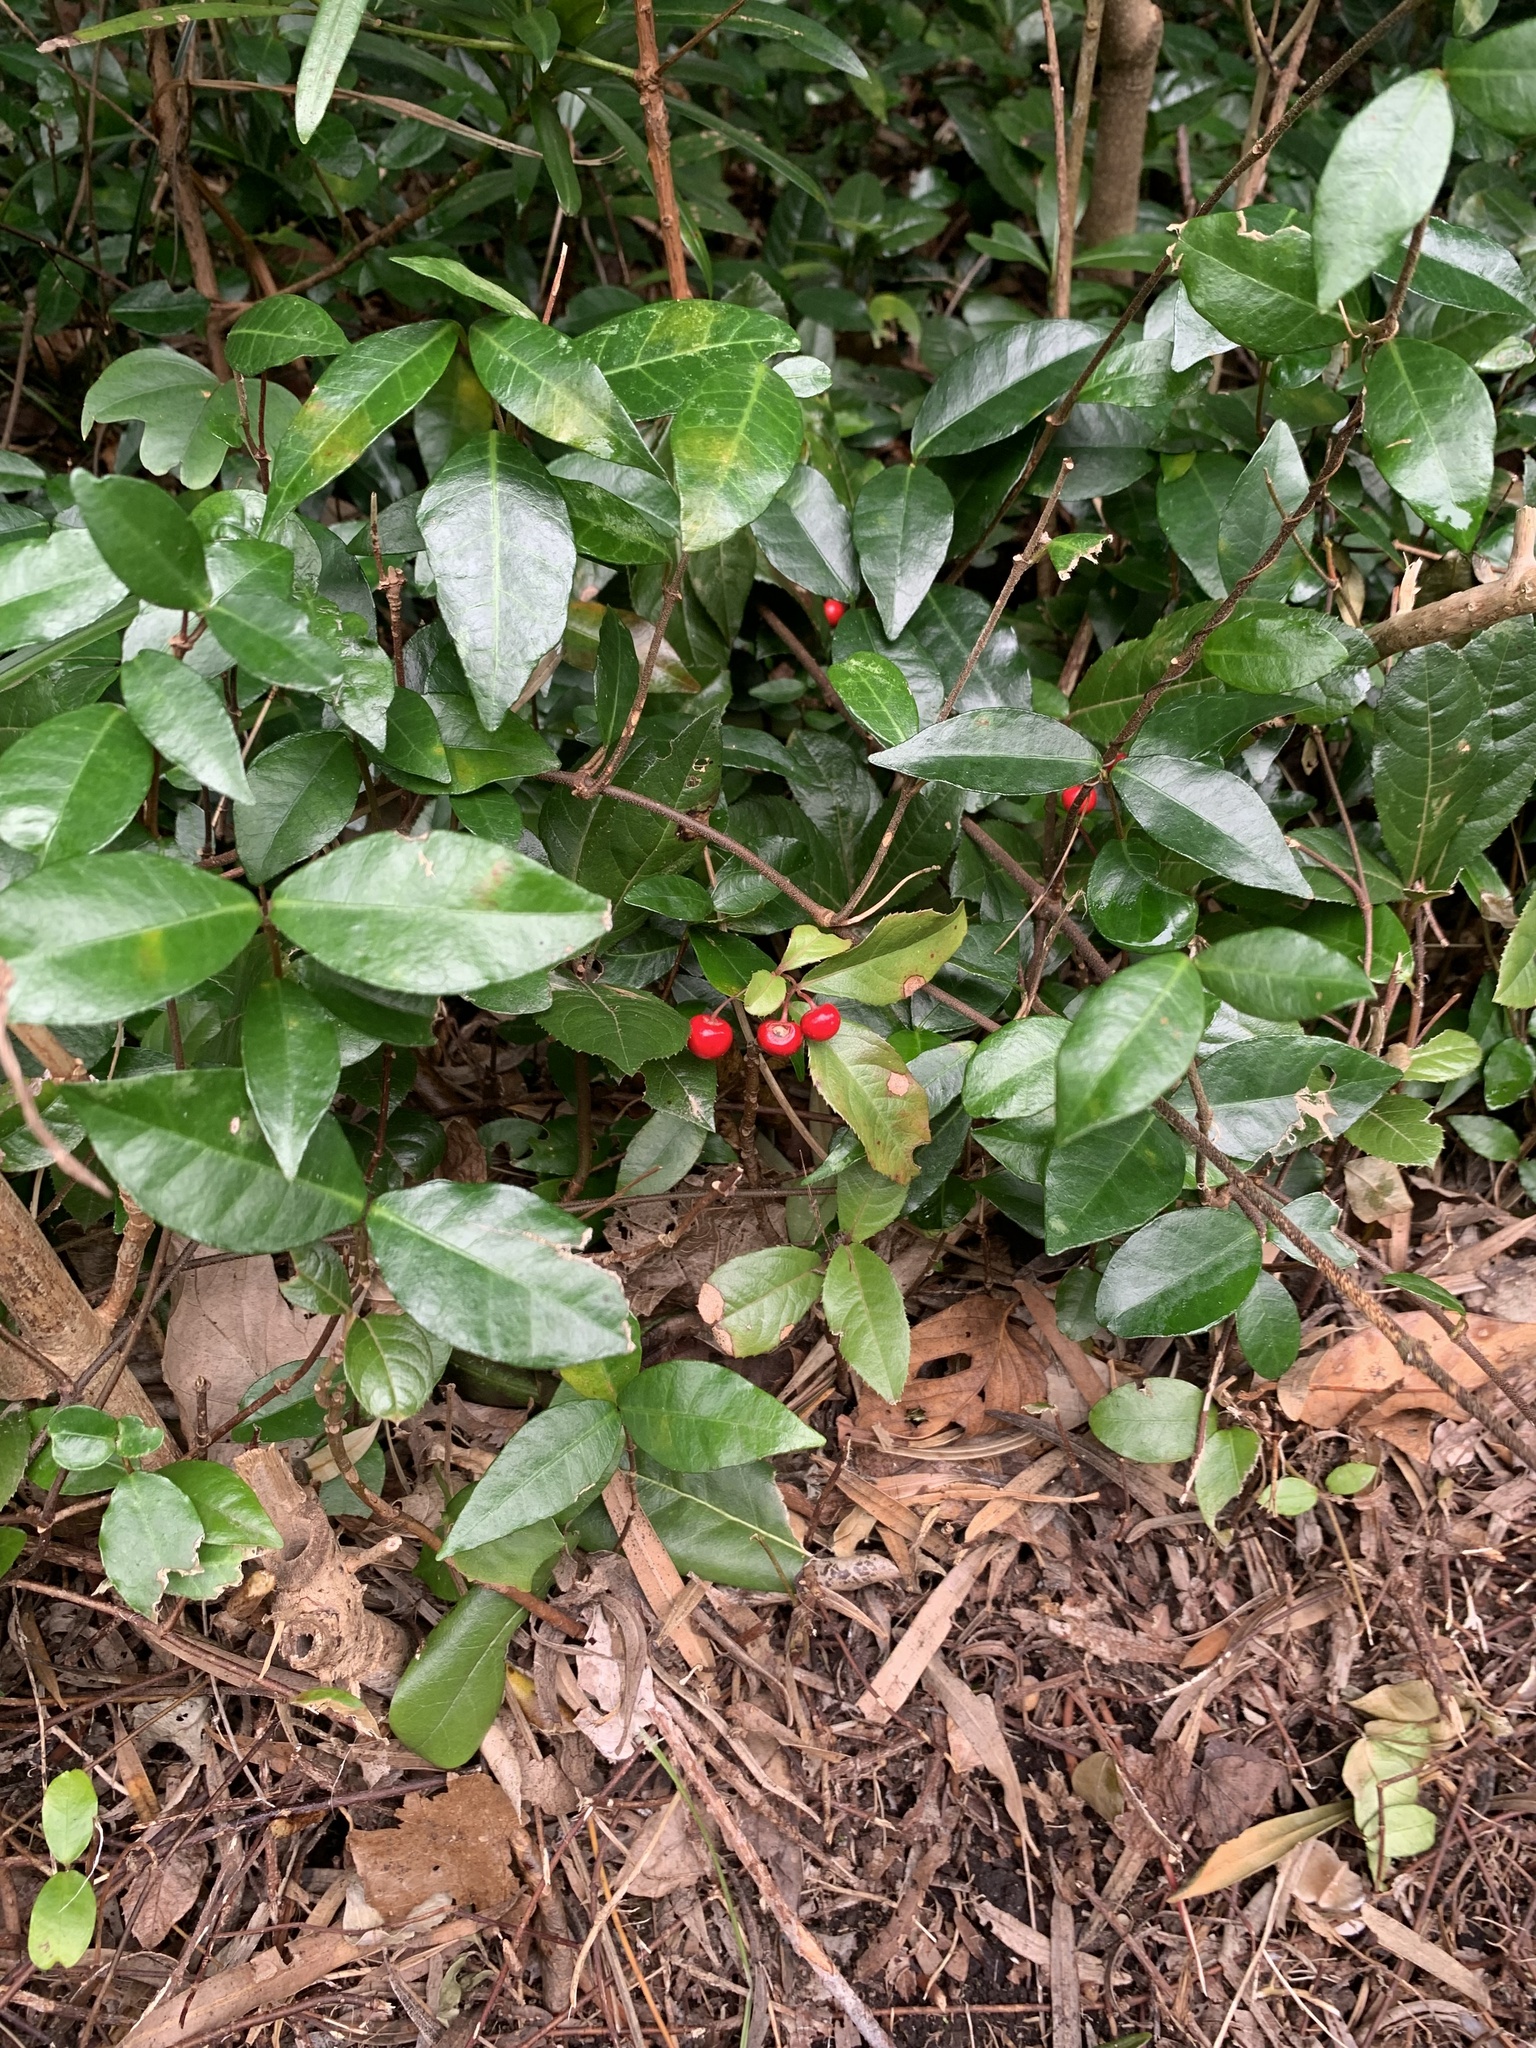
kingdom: Plantae
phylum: Tracheophyta
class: Magnoliopsida
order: Ericales
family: Primulaceae
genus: Ardisia
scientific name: Ardisia japonica
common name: Marlberry
